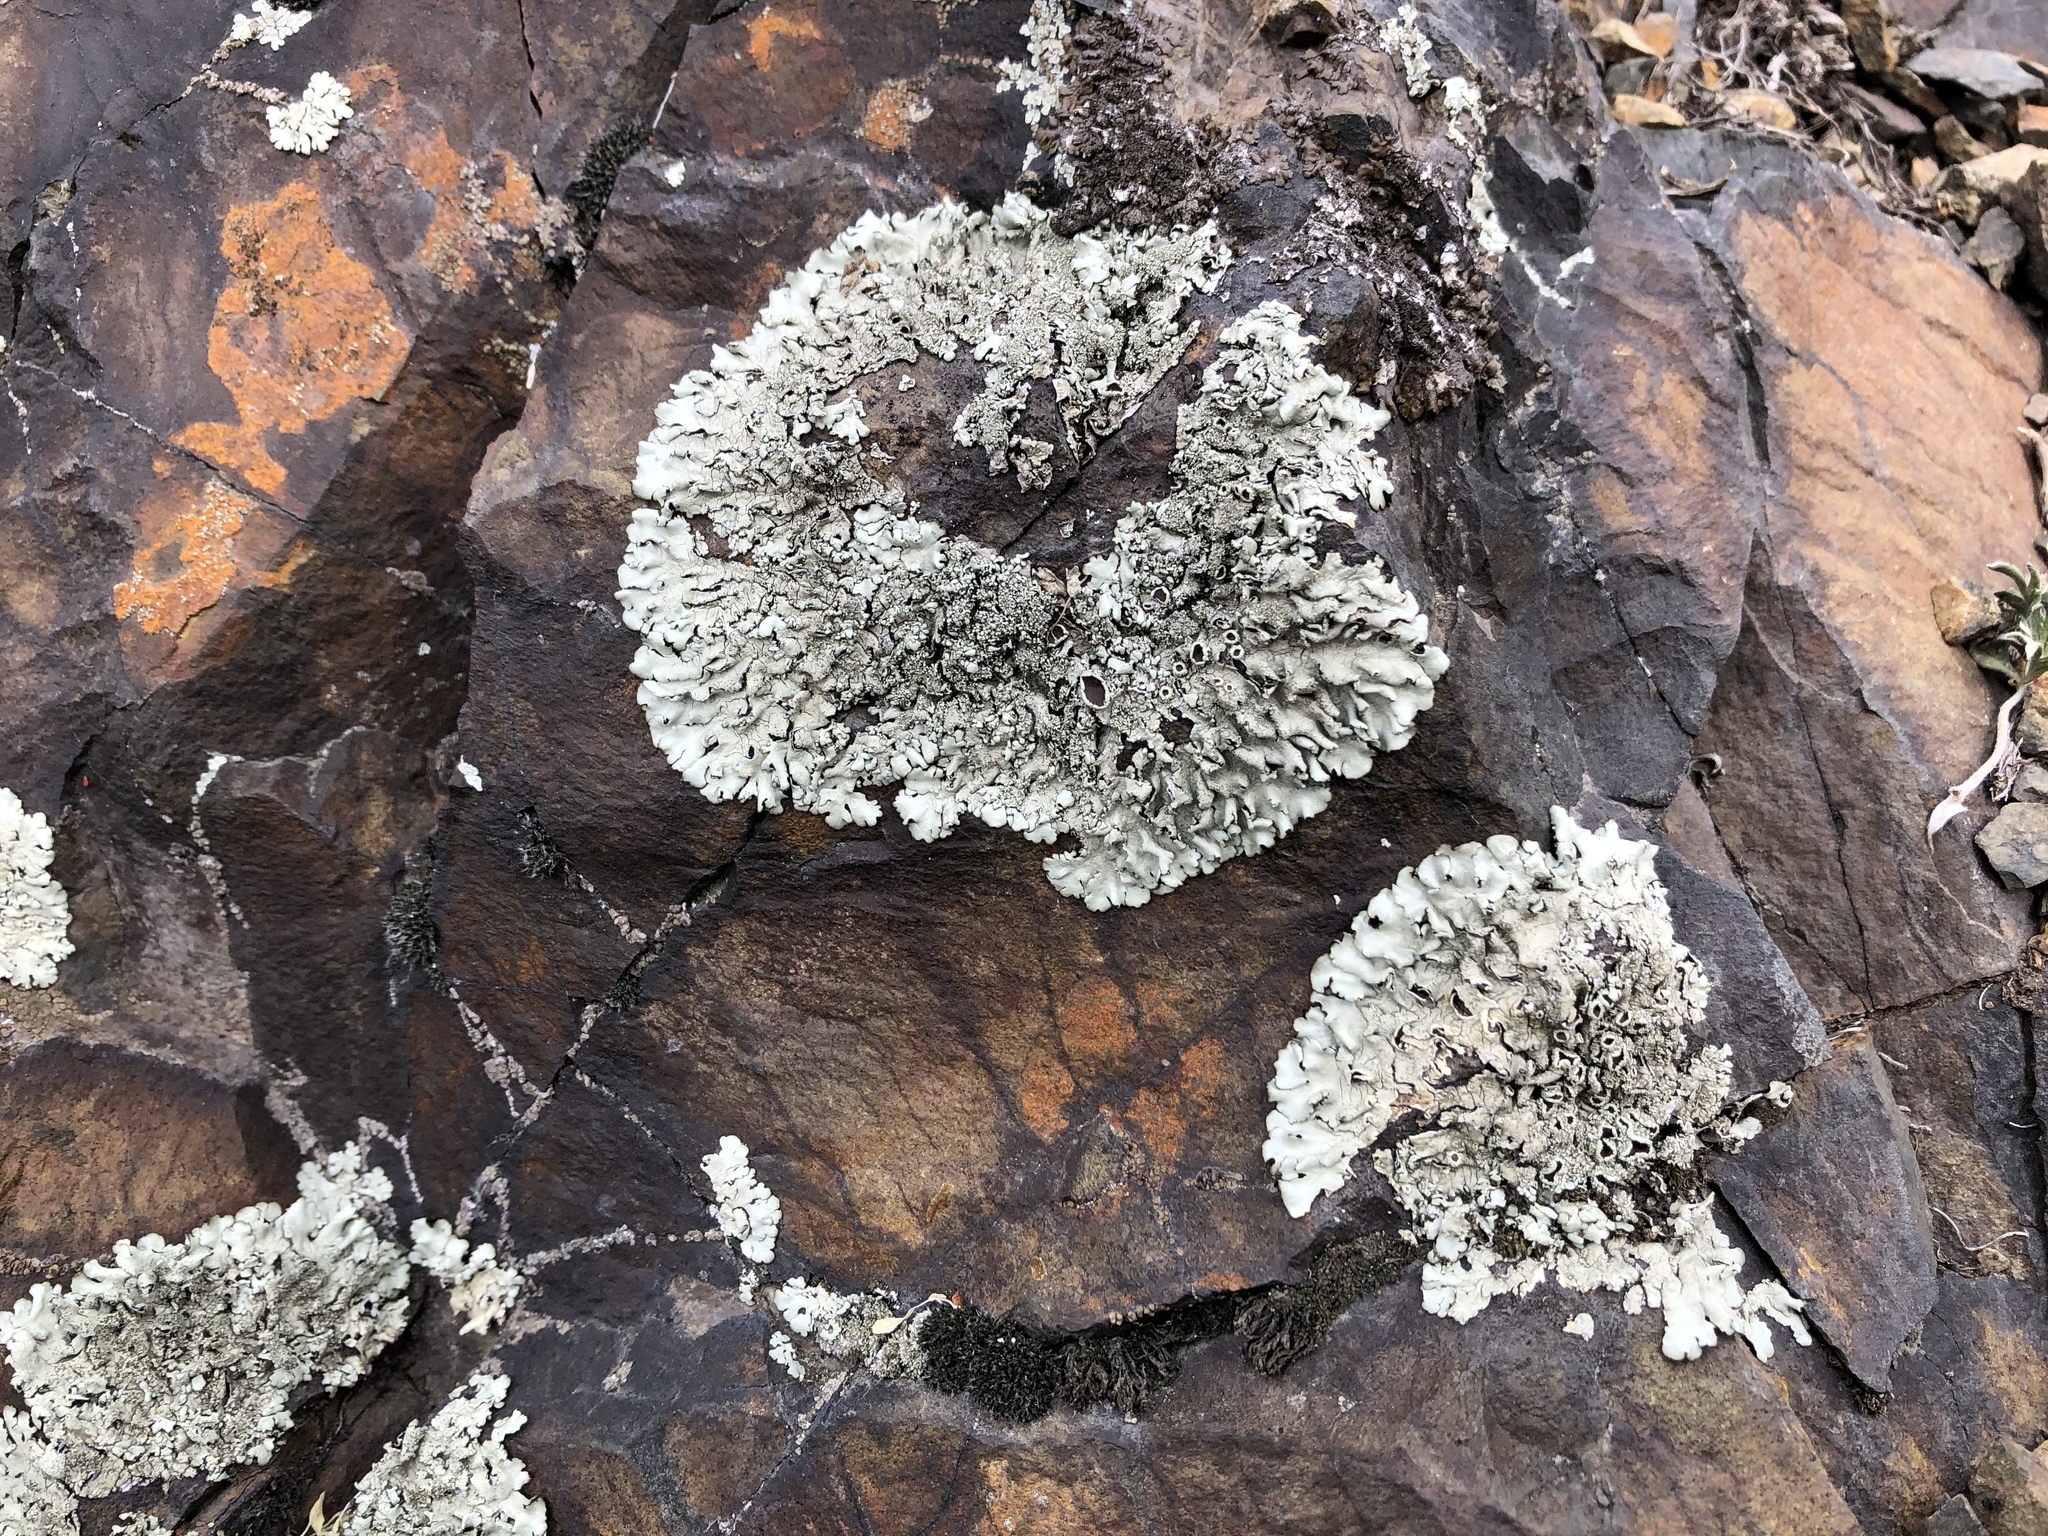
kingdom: Fungi
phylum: Ascomycota
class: Lecanoromycetes
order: Lecanorales
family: Parmeliaceae
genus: Xanthoparmelia
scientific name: Xanthoparmelia conspersa
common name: Peppered rock shield
